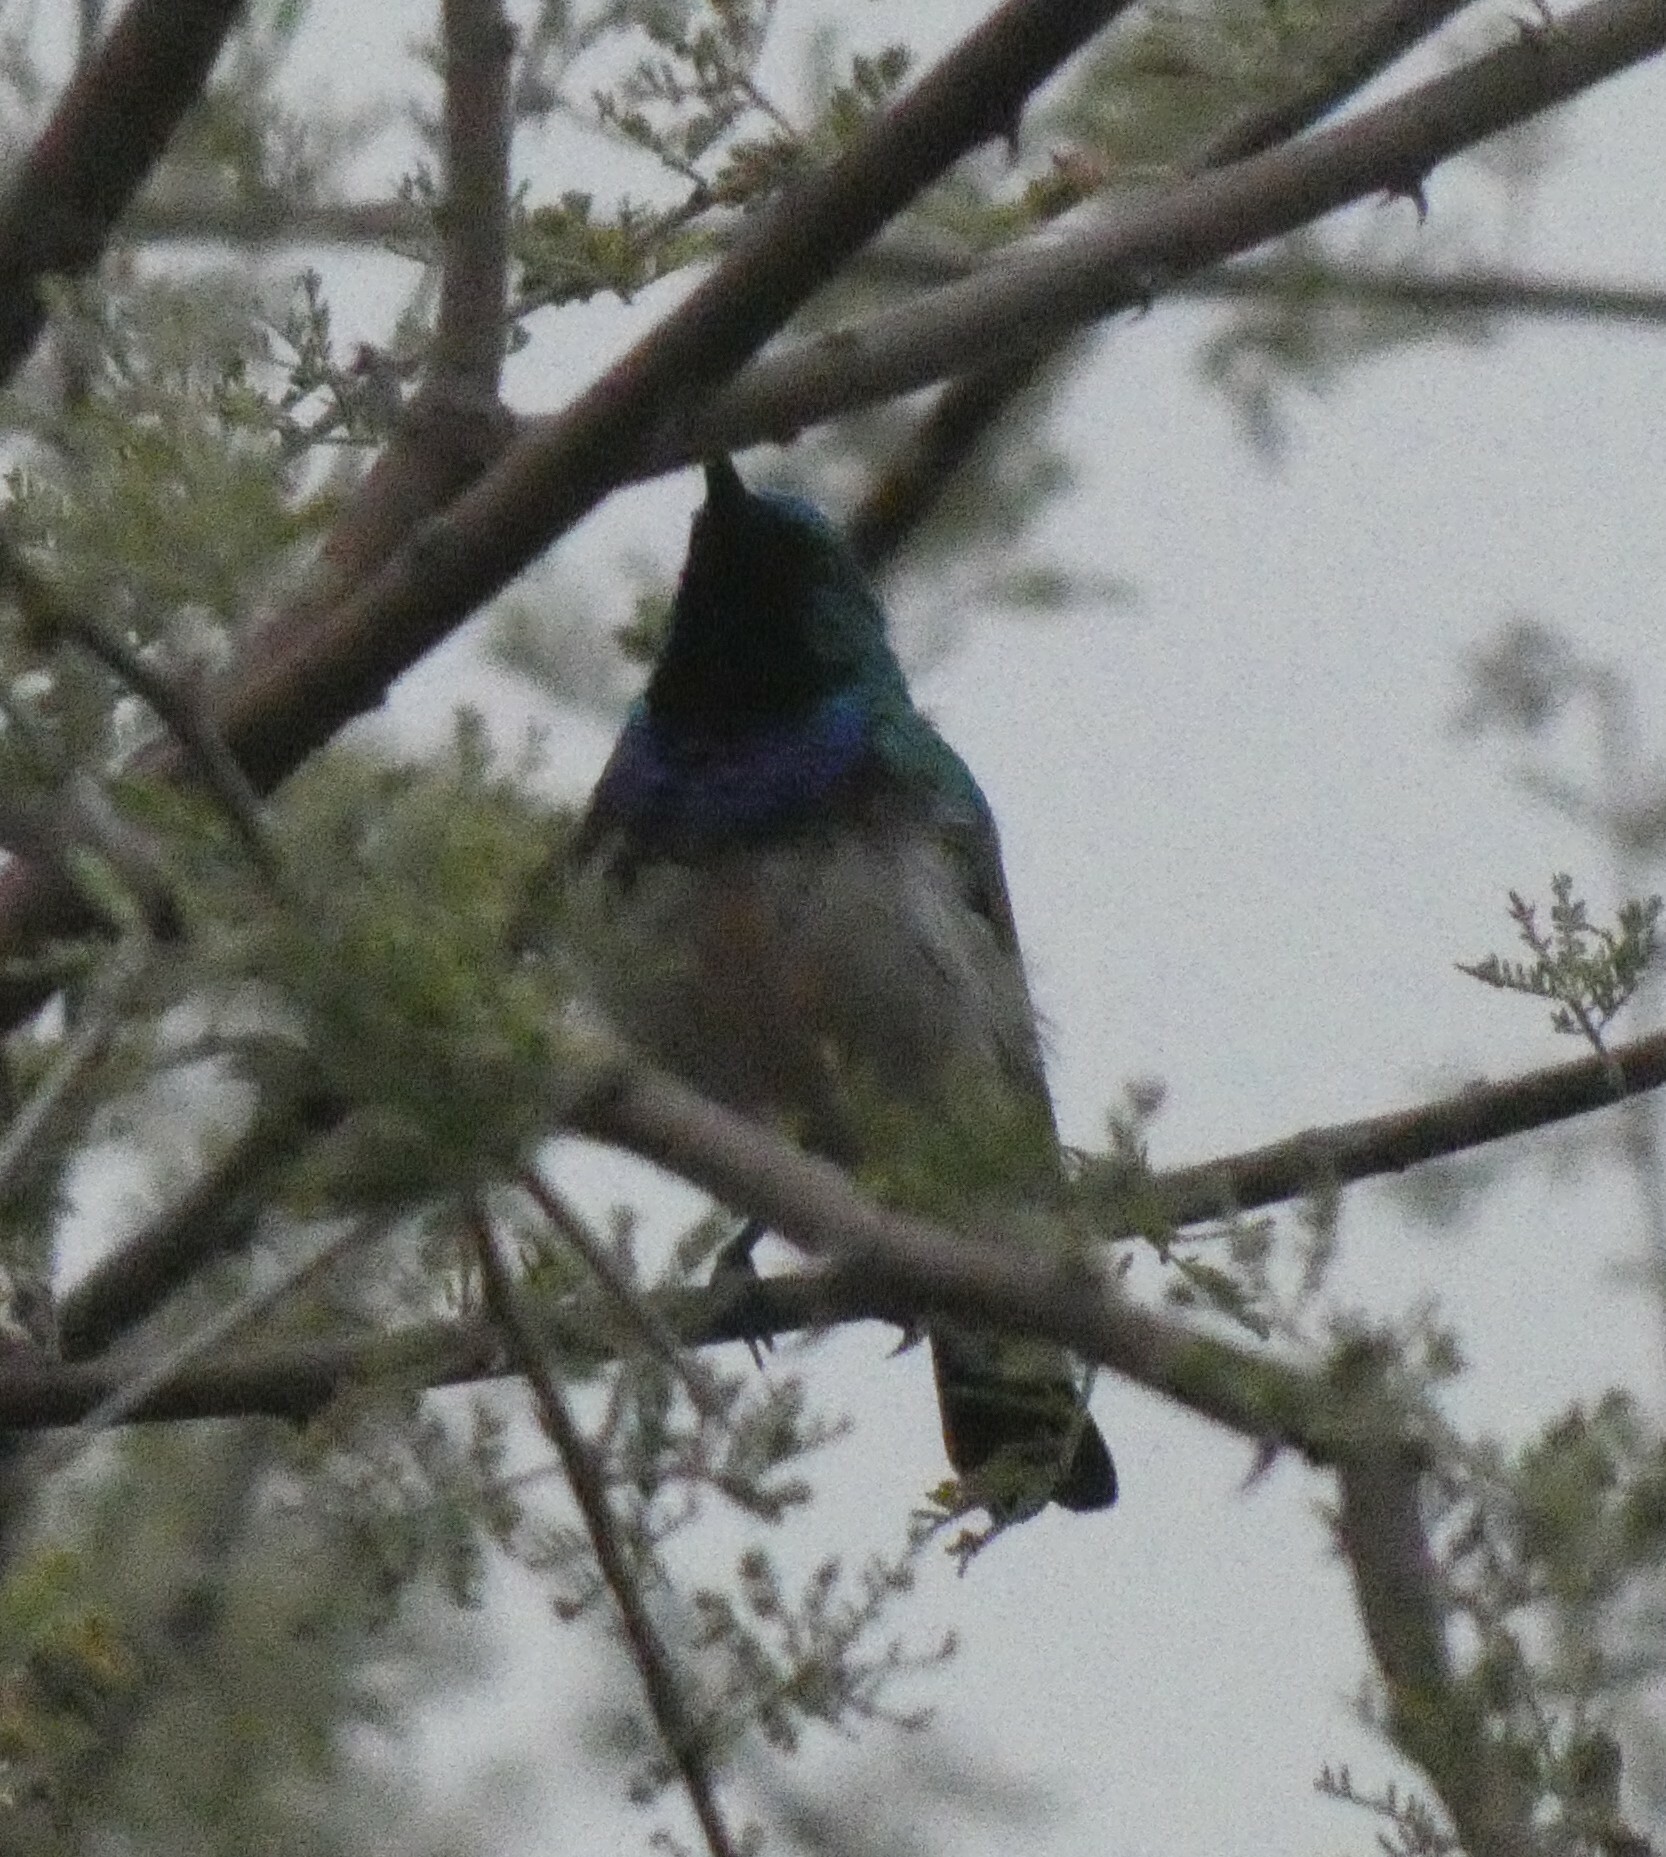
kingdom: Animalia
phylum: Chordata
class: Aves
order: Passeriformes
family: Nectariniidae
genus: Cinnyris
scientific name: Cinnyris talatala
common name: White-bellied sunbird
